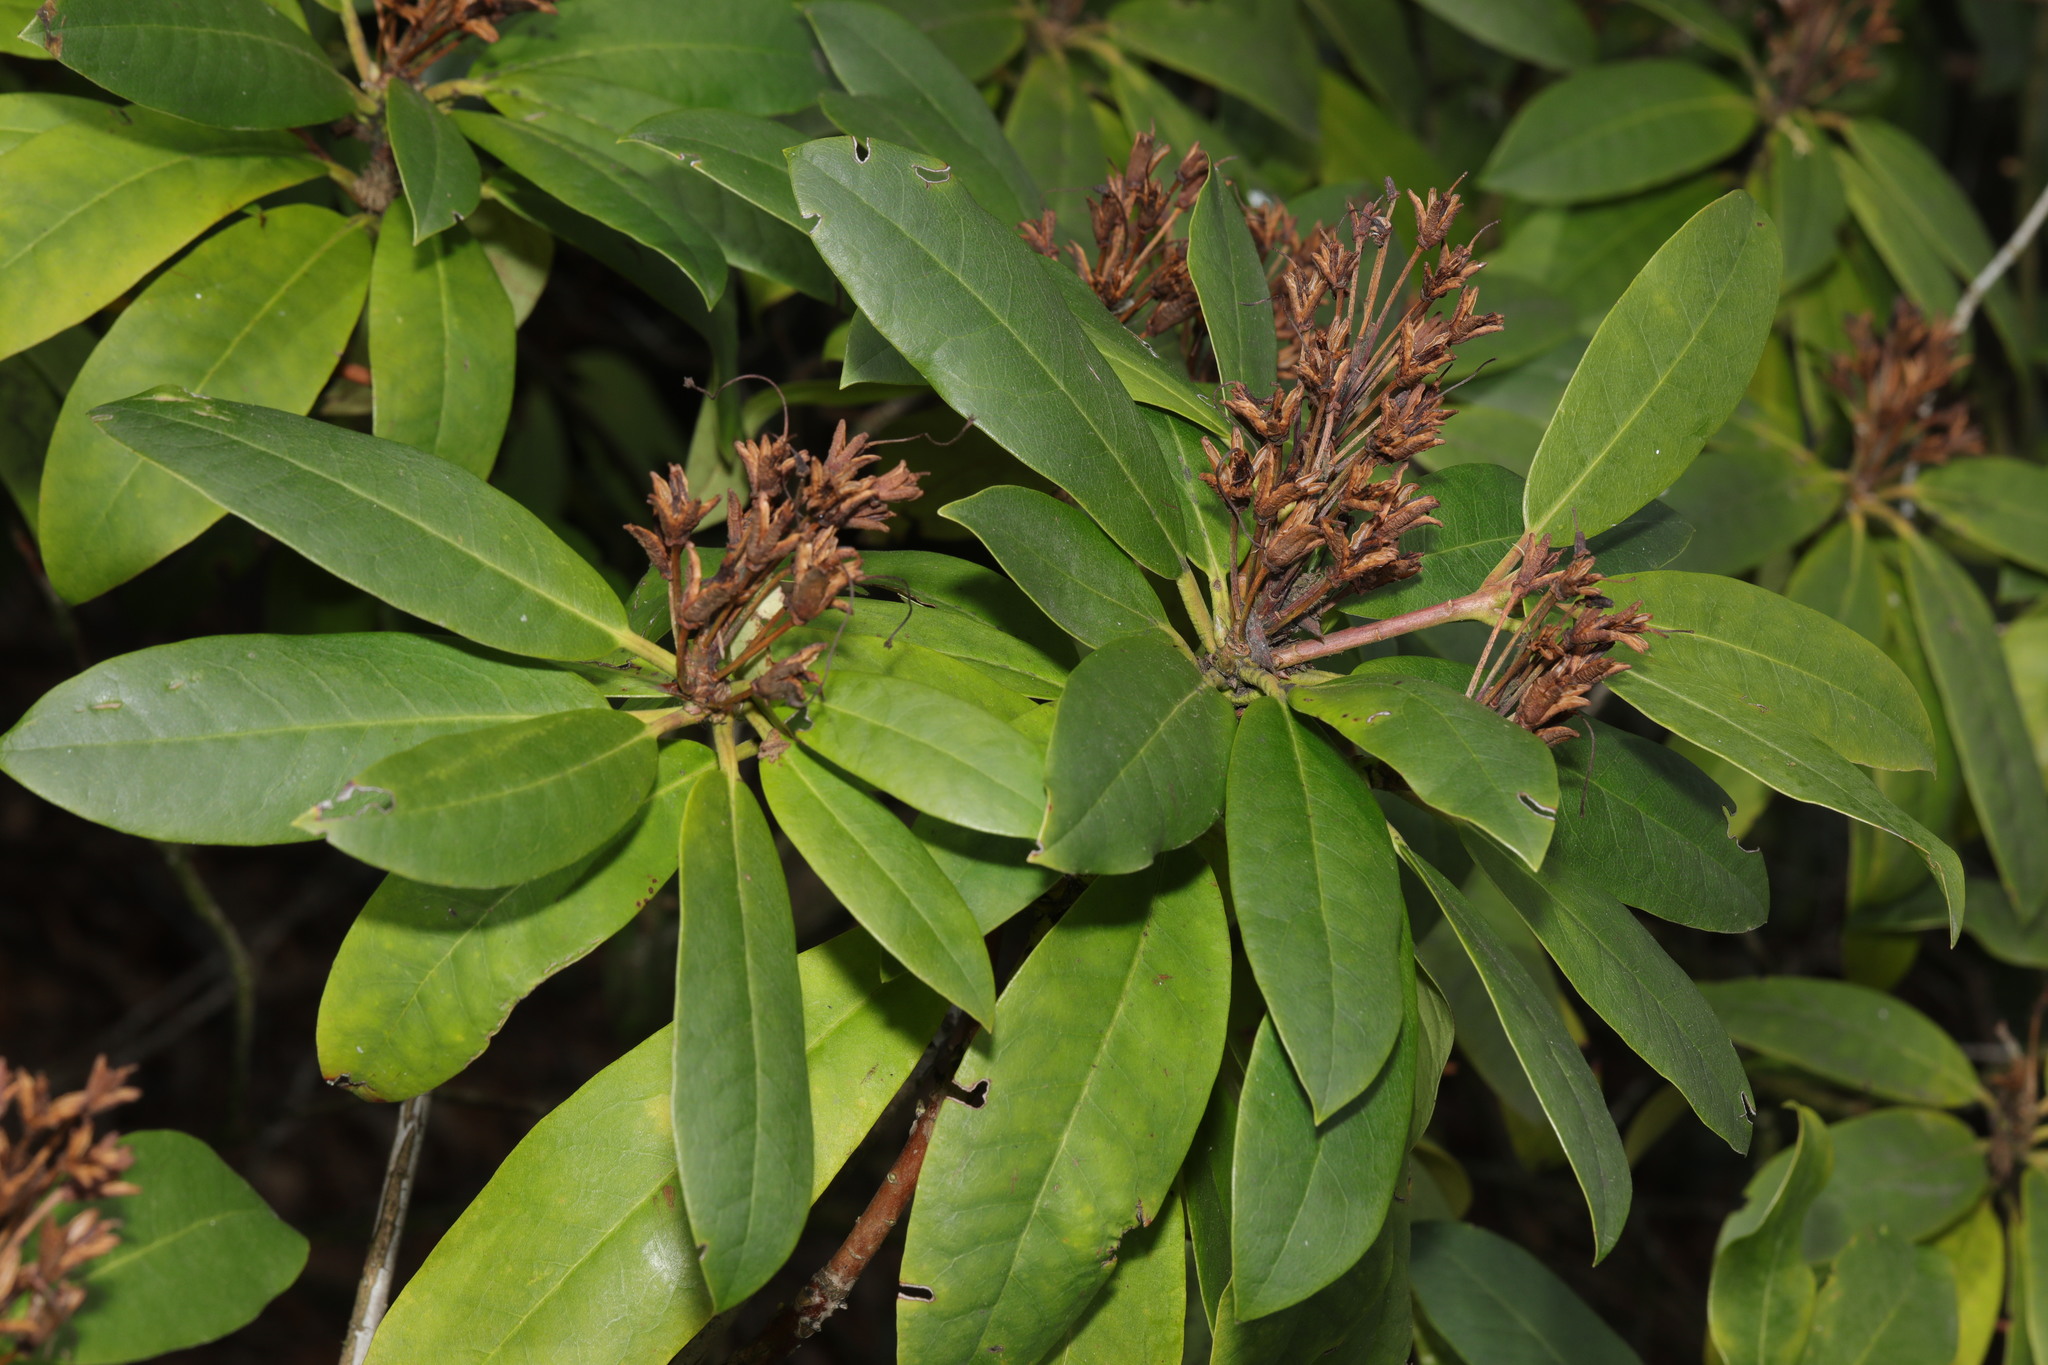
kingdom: Plantae
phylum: Tracheophyta
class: Magnoliopsida
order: Ericales
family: Ericaceae
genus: Rhododendron
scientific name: Rhododendron ponticum
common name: Rhododendron
